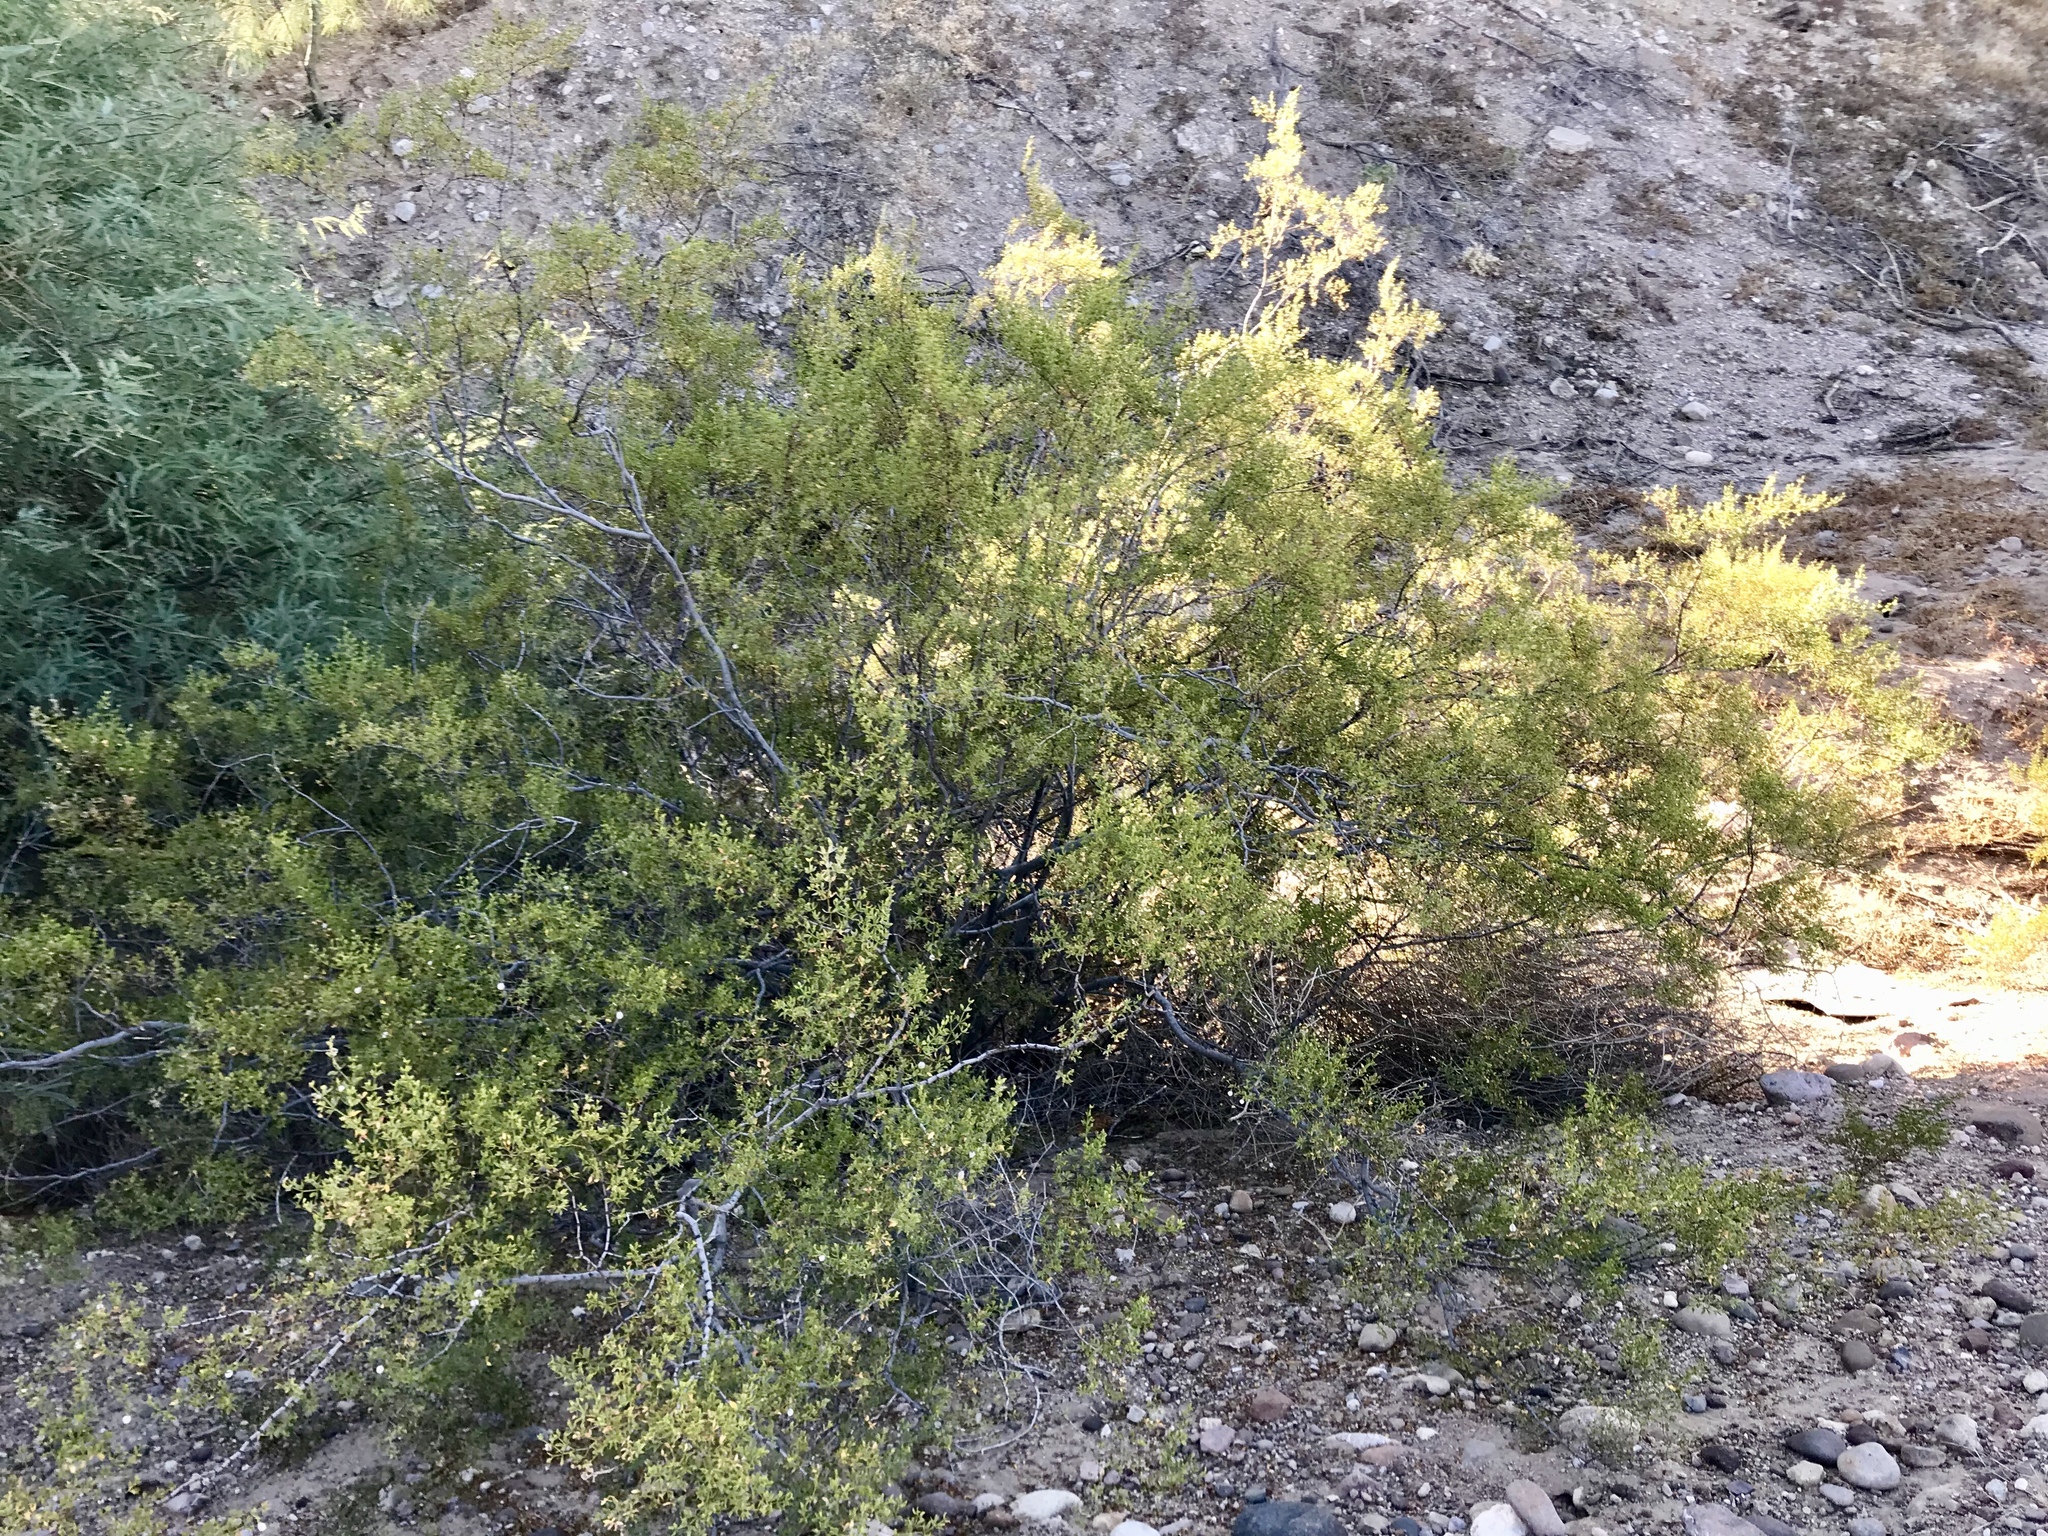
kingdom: Plantae
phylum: Tracheophyta
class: Magnoliopsida
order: Zygophyllales
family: Zygophyllaceae
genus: Larrea
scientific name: Larrea tridentata
